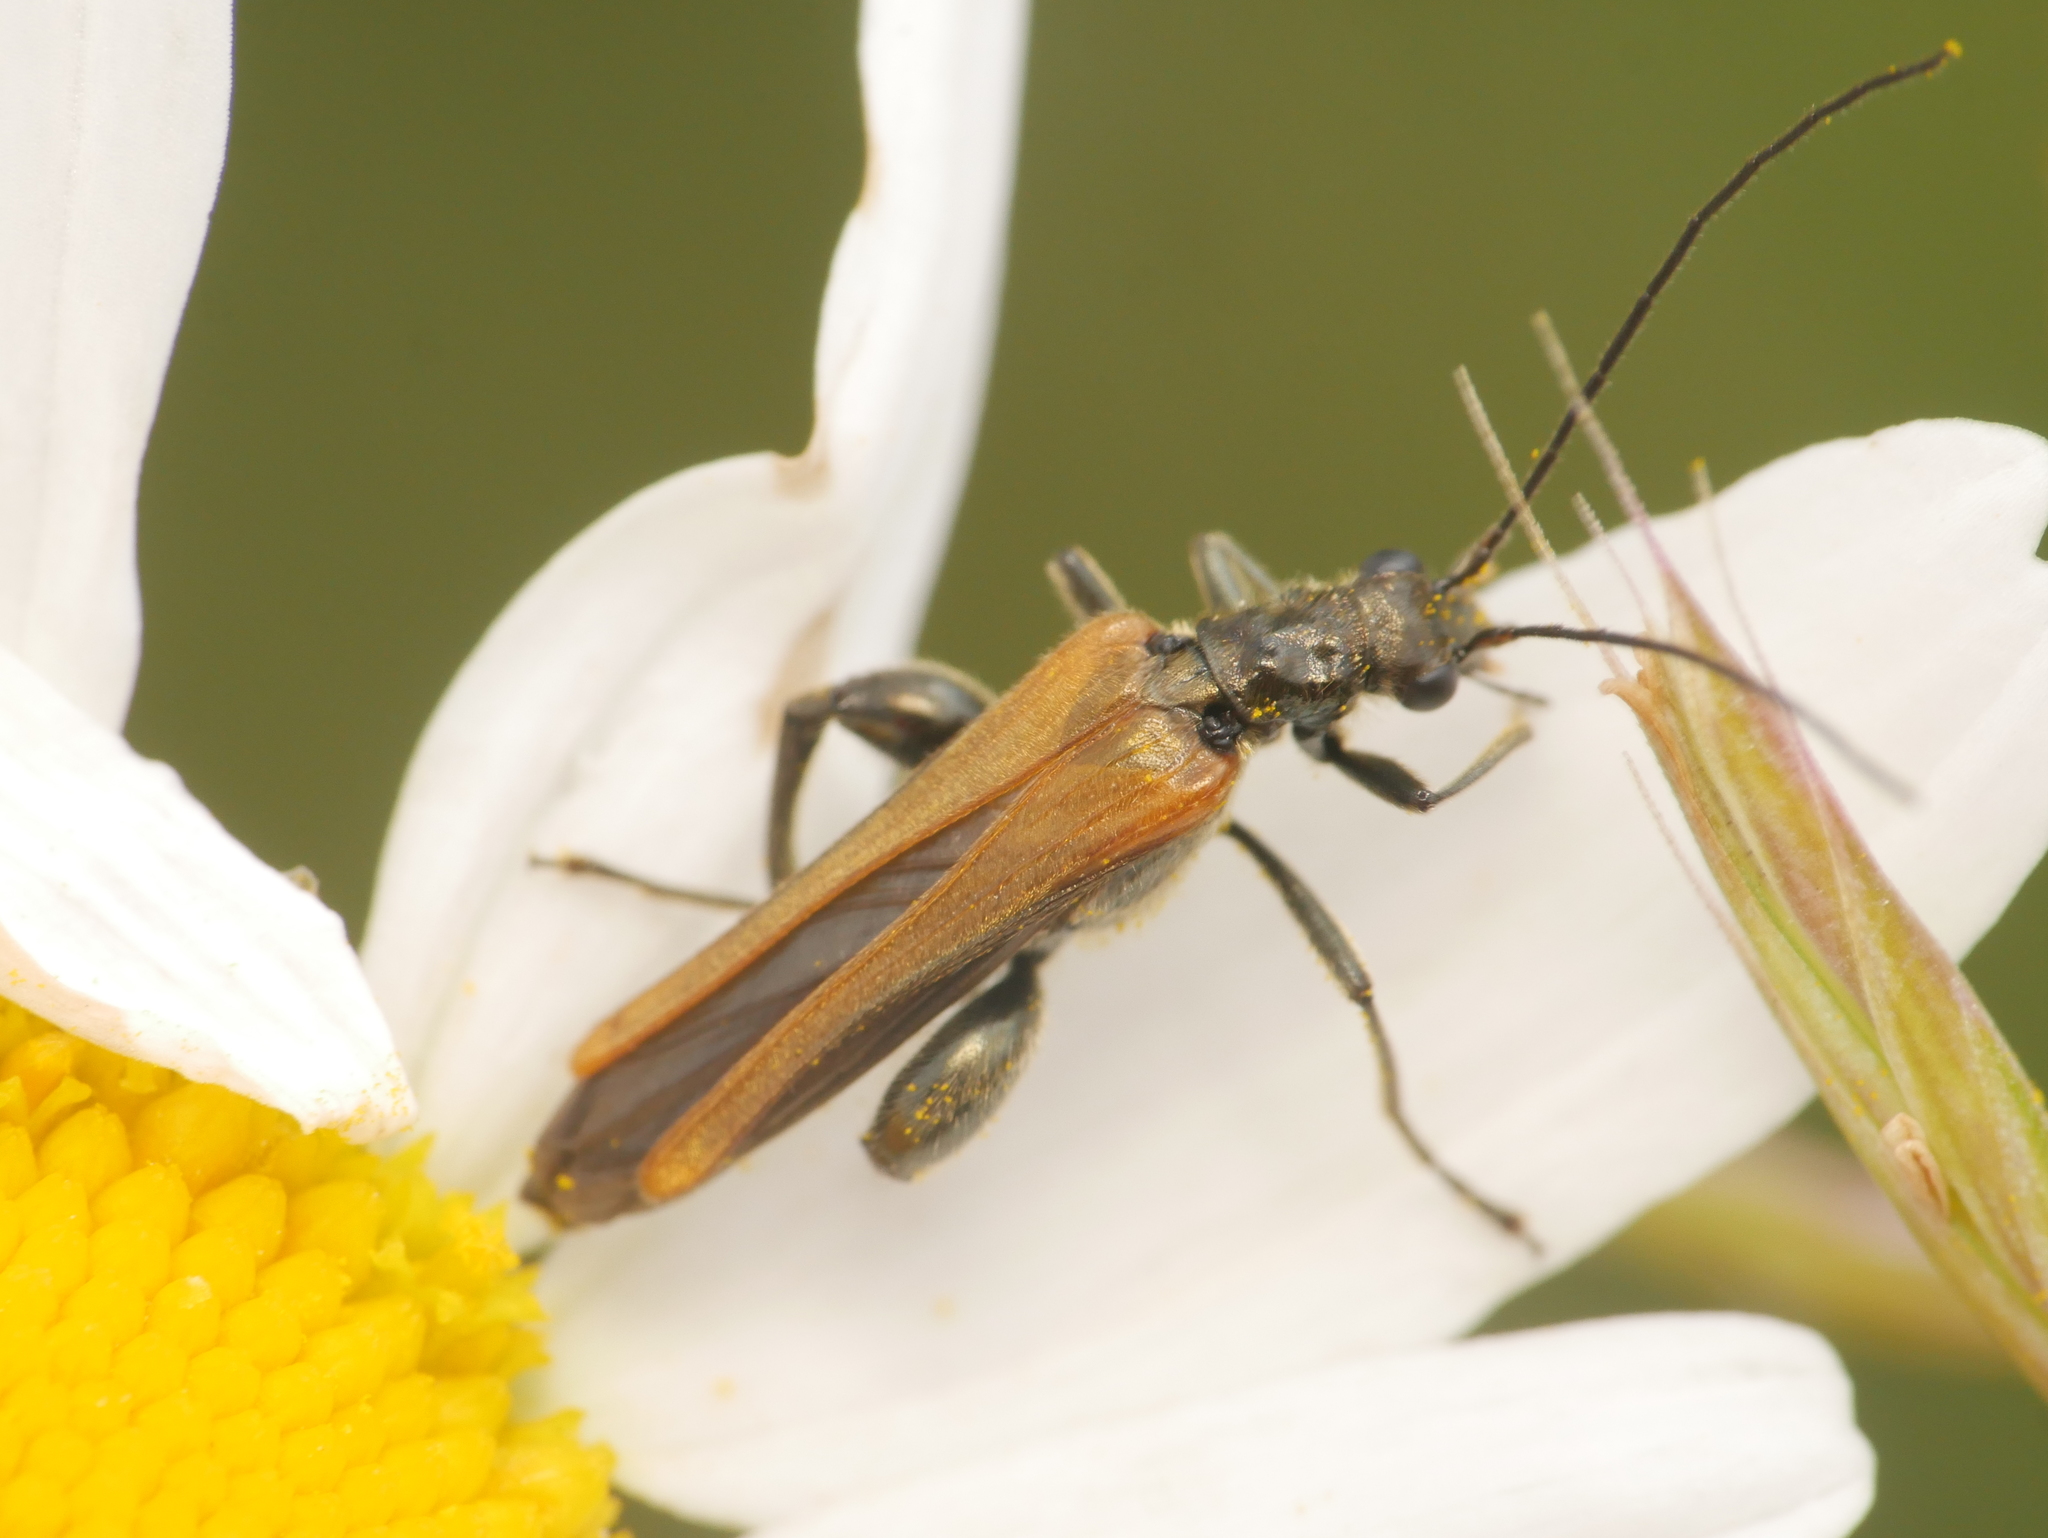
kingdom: Animalia
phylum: Arthropoda
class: Insecta
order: Coleoptera
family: Oedemeridae
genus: Oedemera
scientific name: Oedemera femorata
